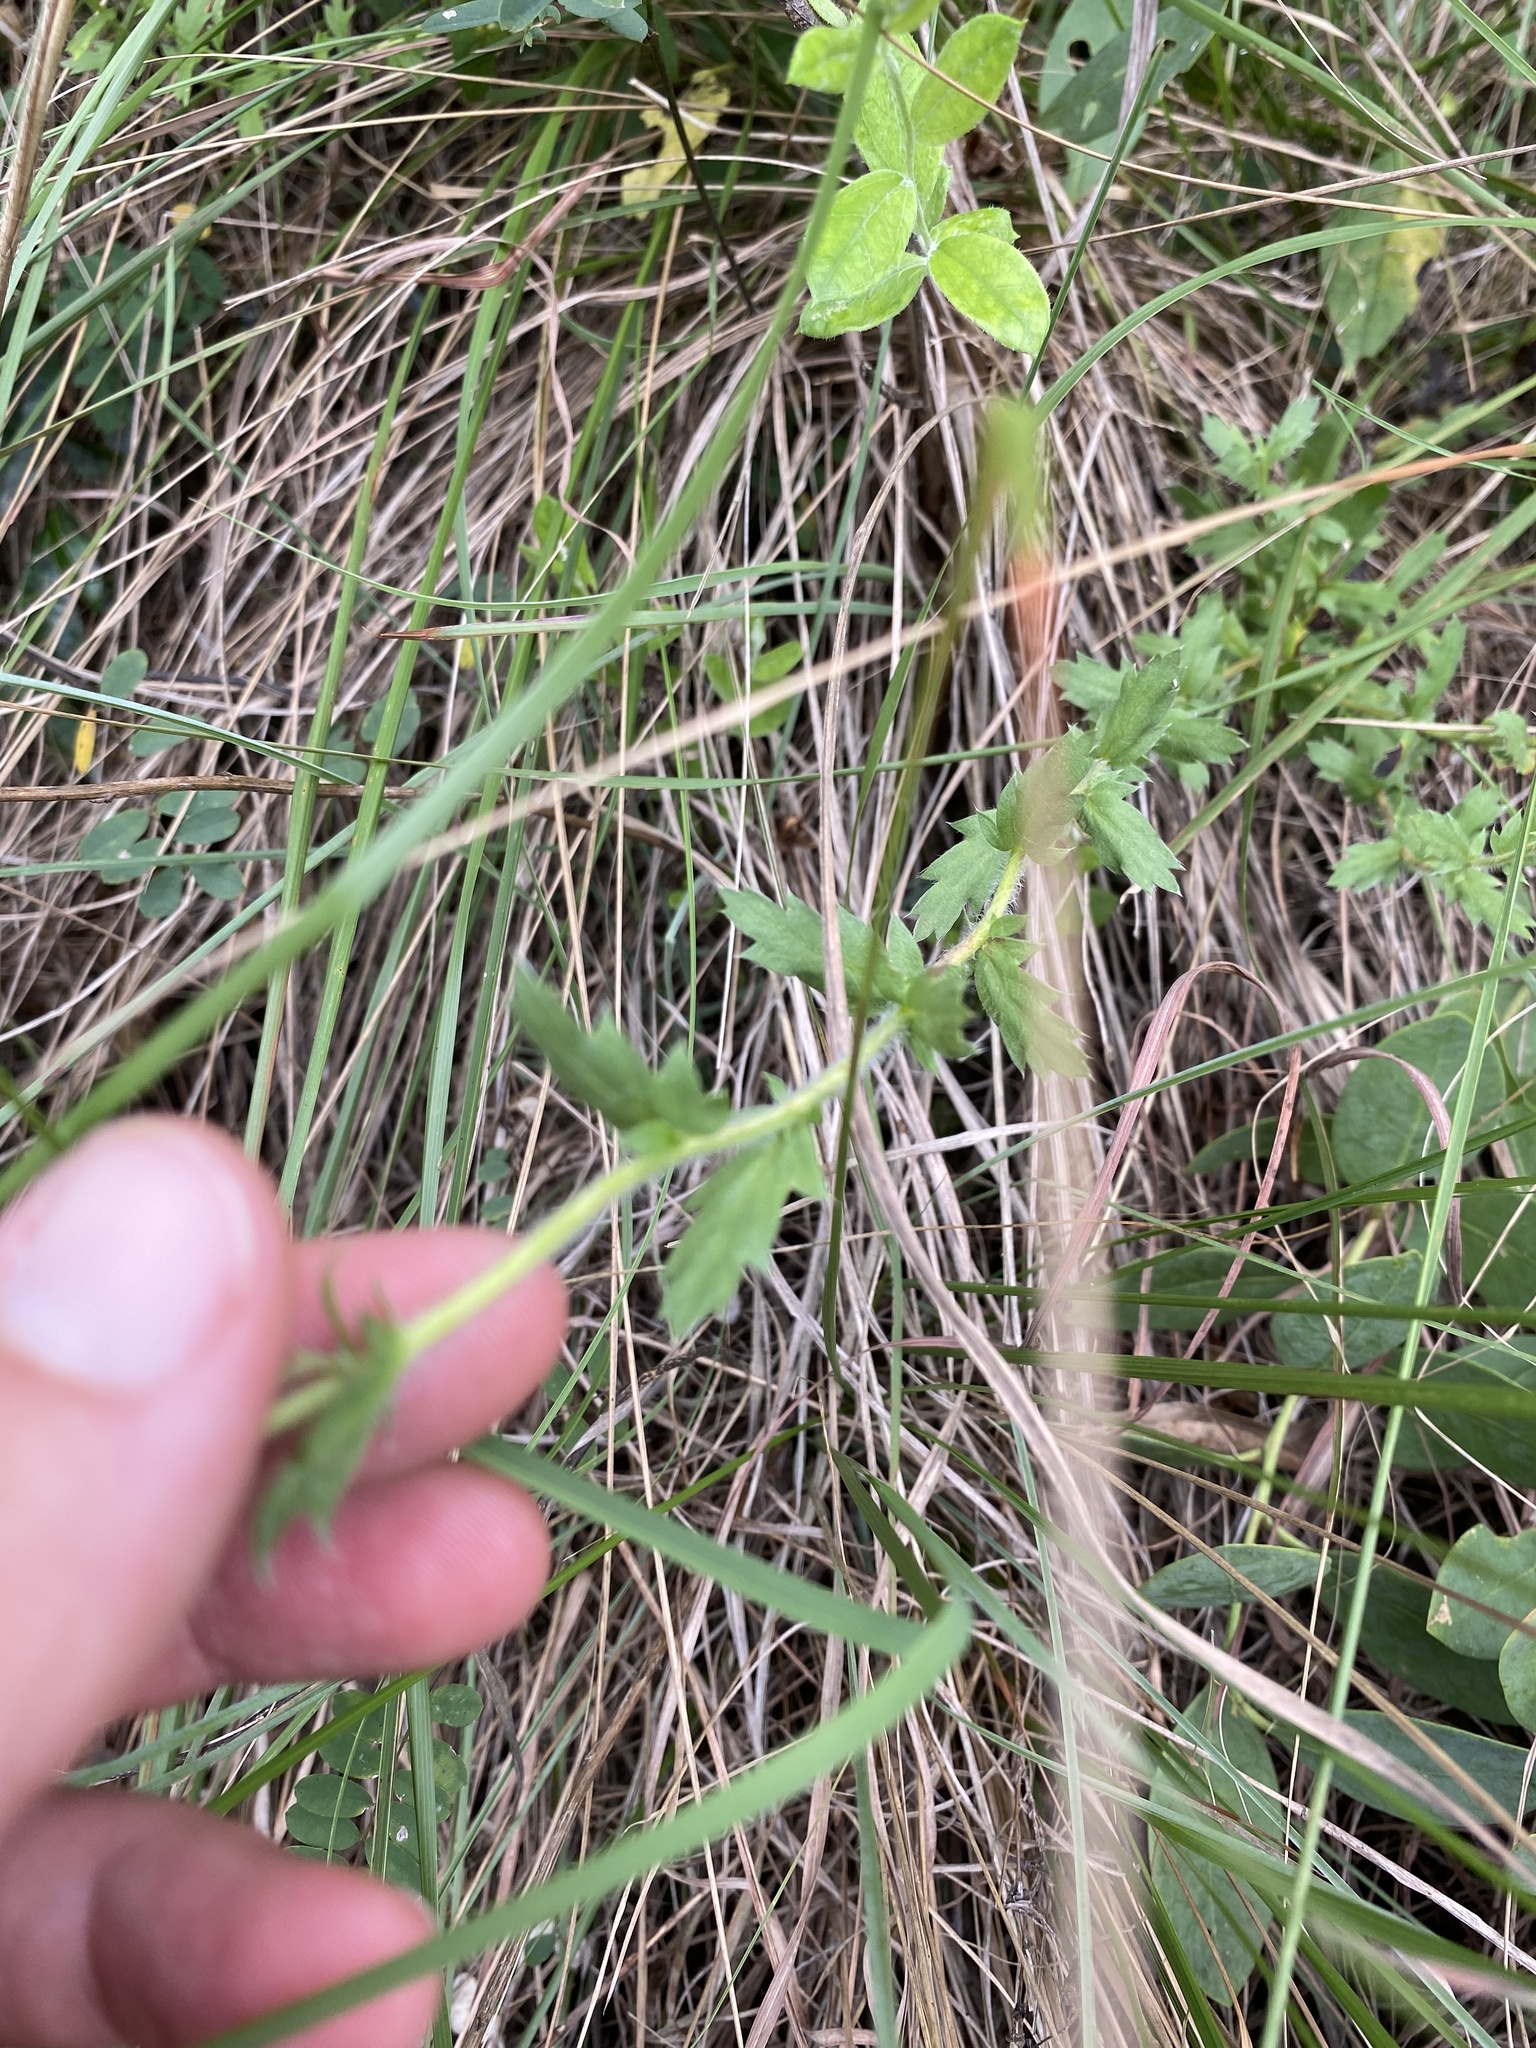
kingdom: Plantae
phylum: Tracheophyta
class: Magnoliopsida
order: Asterales
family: Asteraceae
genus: Schistostephium
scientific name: Schistostephium crataegifolium
